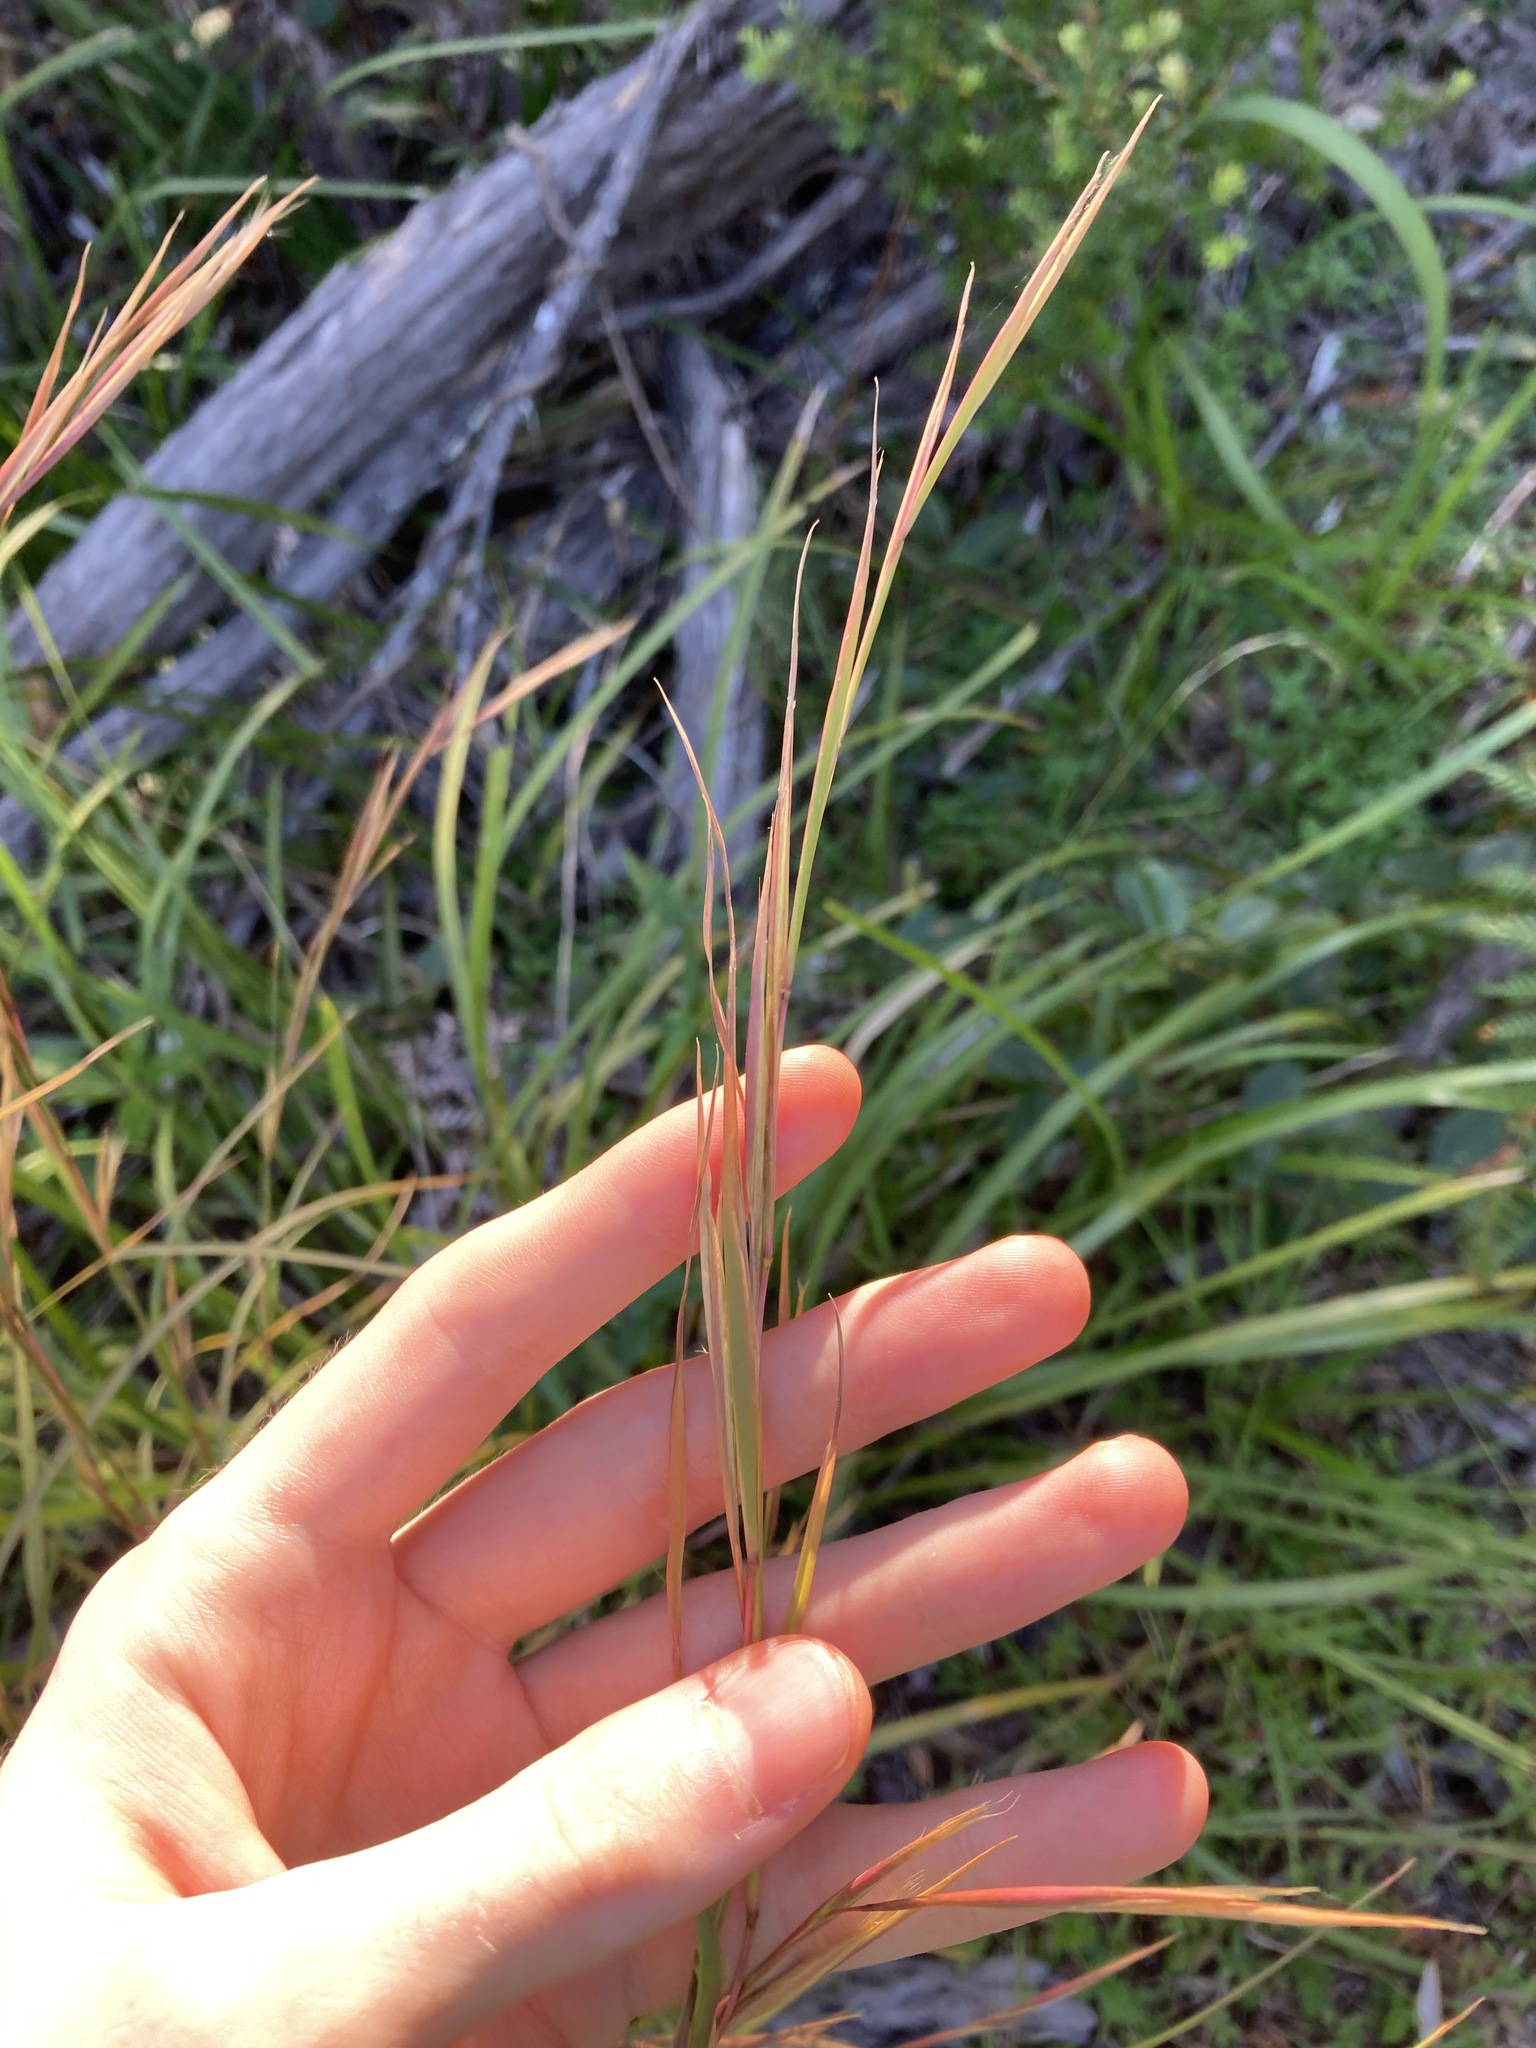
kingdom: Plantae
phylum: Tracheophyta
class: Liliopsida
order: Poales
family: Poaceae
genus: Andropogon
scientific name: Andropogon virginicus
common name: Broomsedge bluestem
